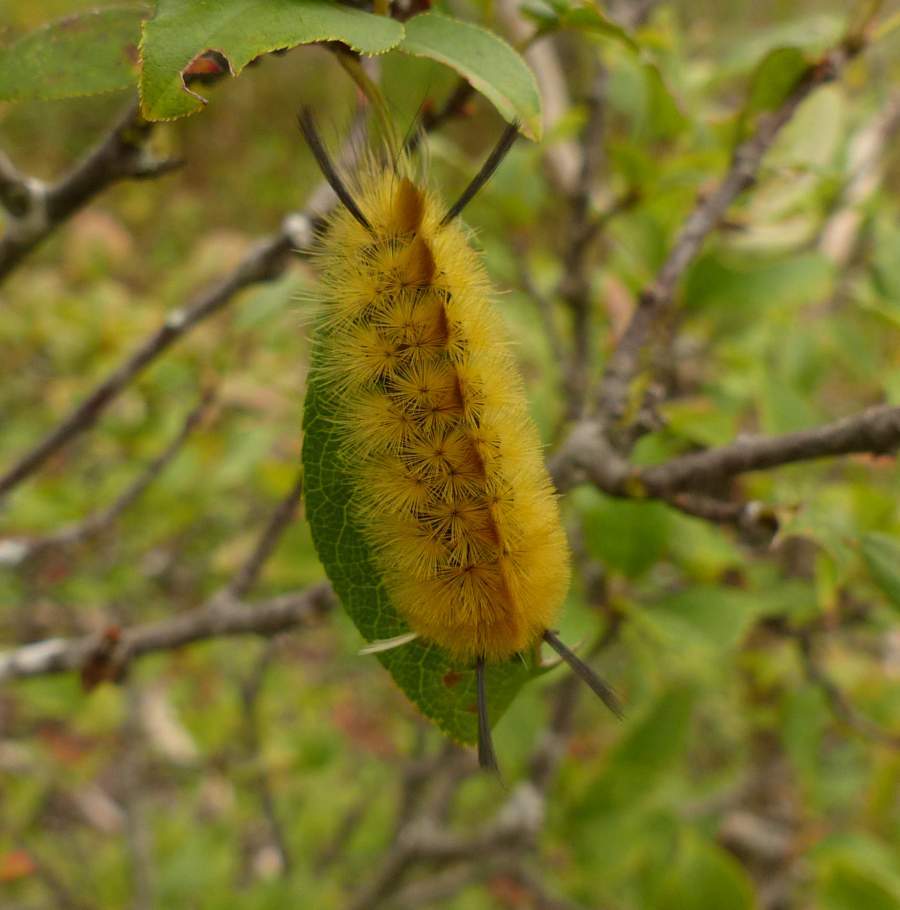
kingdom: Animalia
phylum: Arthropoda
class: Insecta
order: Lepidoptera
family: Erebidae
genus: Halysidota
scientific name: Halysidota tessellaris
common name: Banded tussock moth
